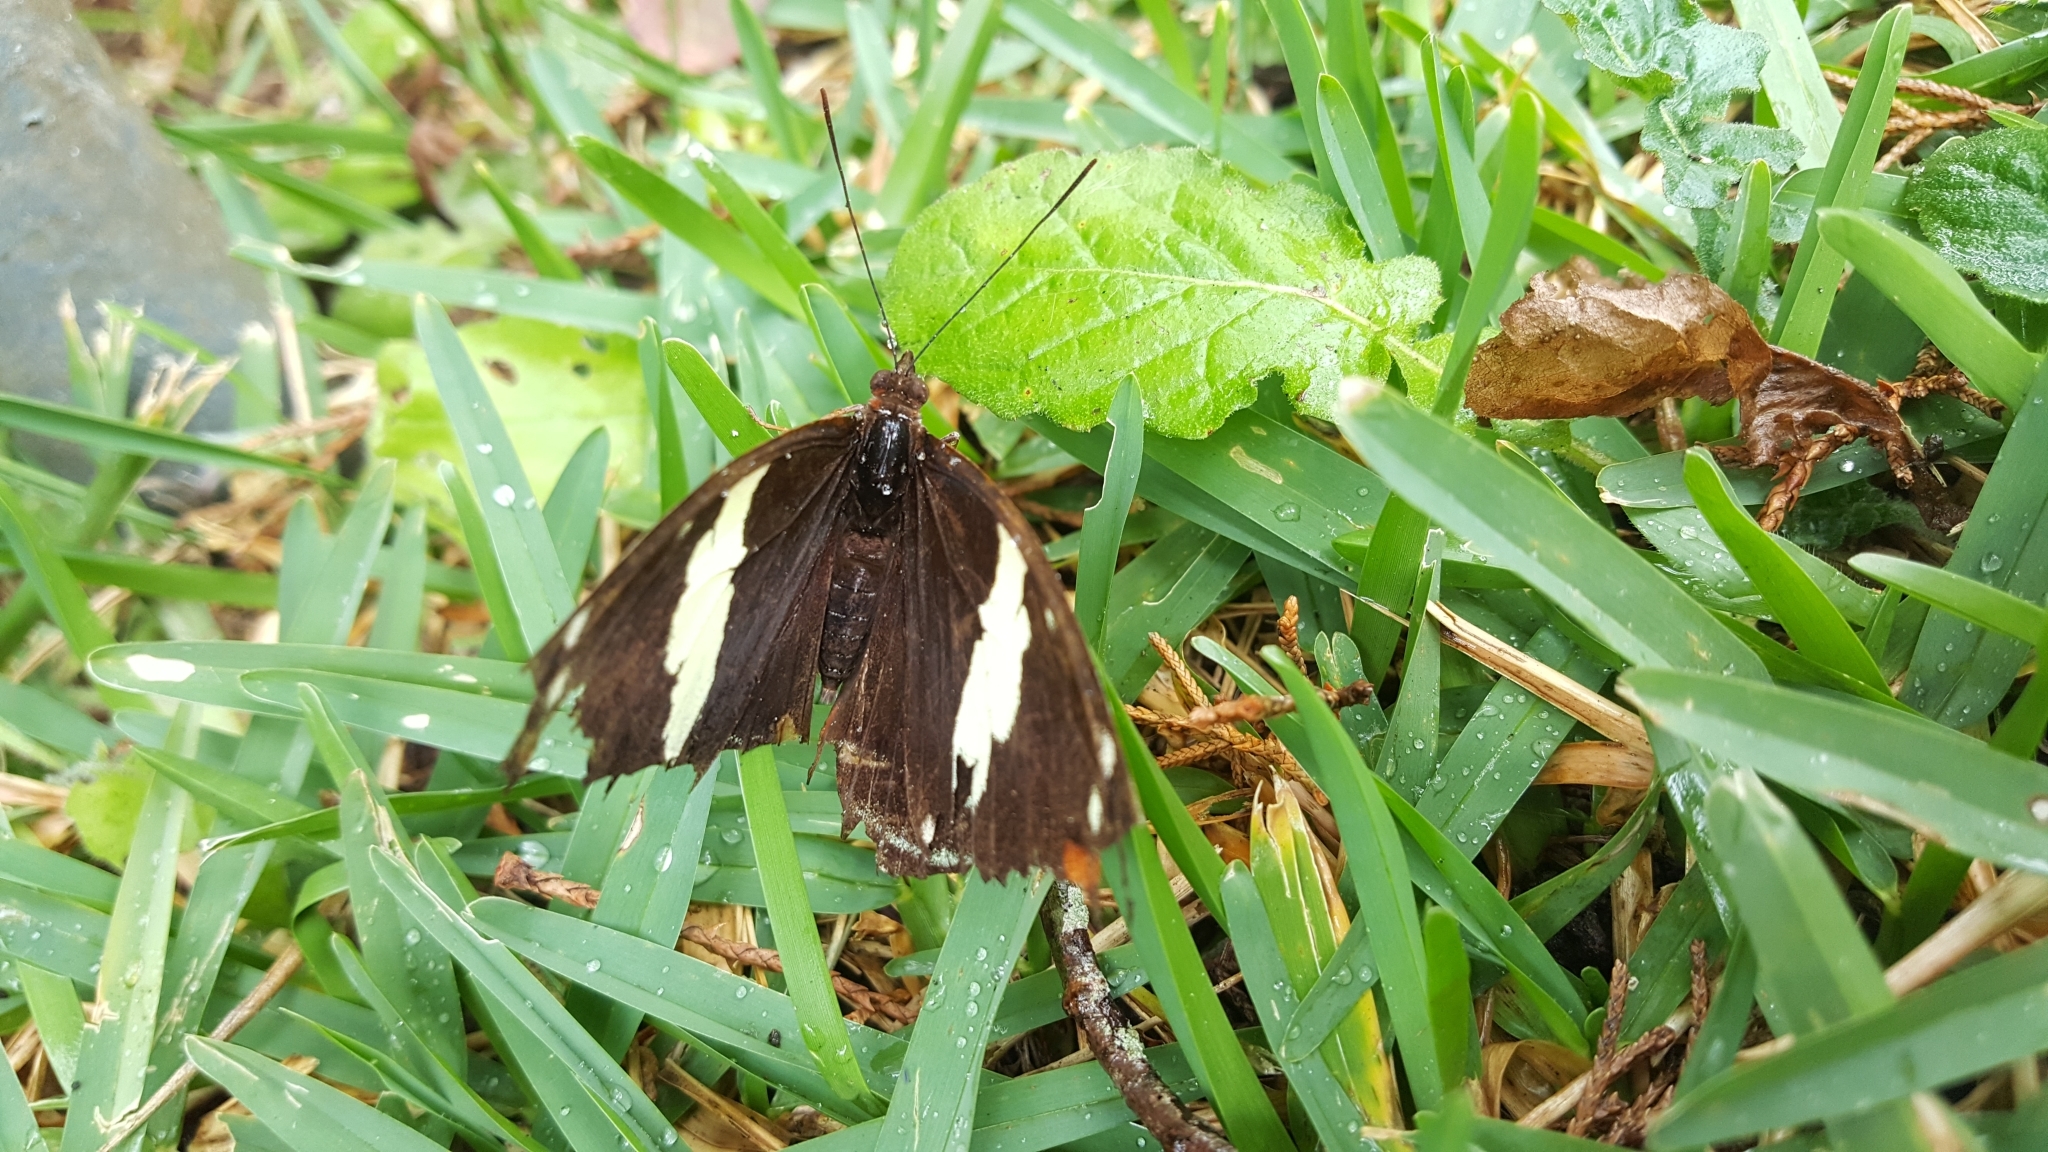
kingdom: Animalia
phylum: Arthropoda
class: Insecta
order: Lepidoptera
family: Nymphalidae
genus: Catonephele
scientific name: Catonephele numilia
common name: Blue-frosted banner
